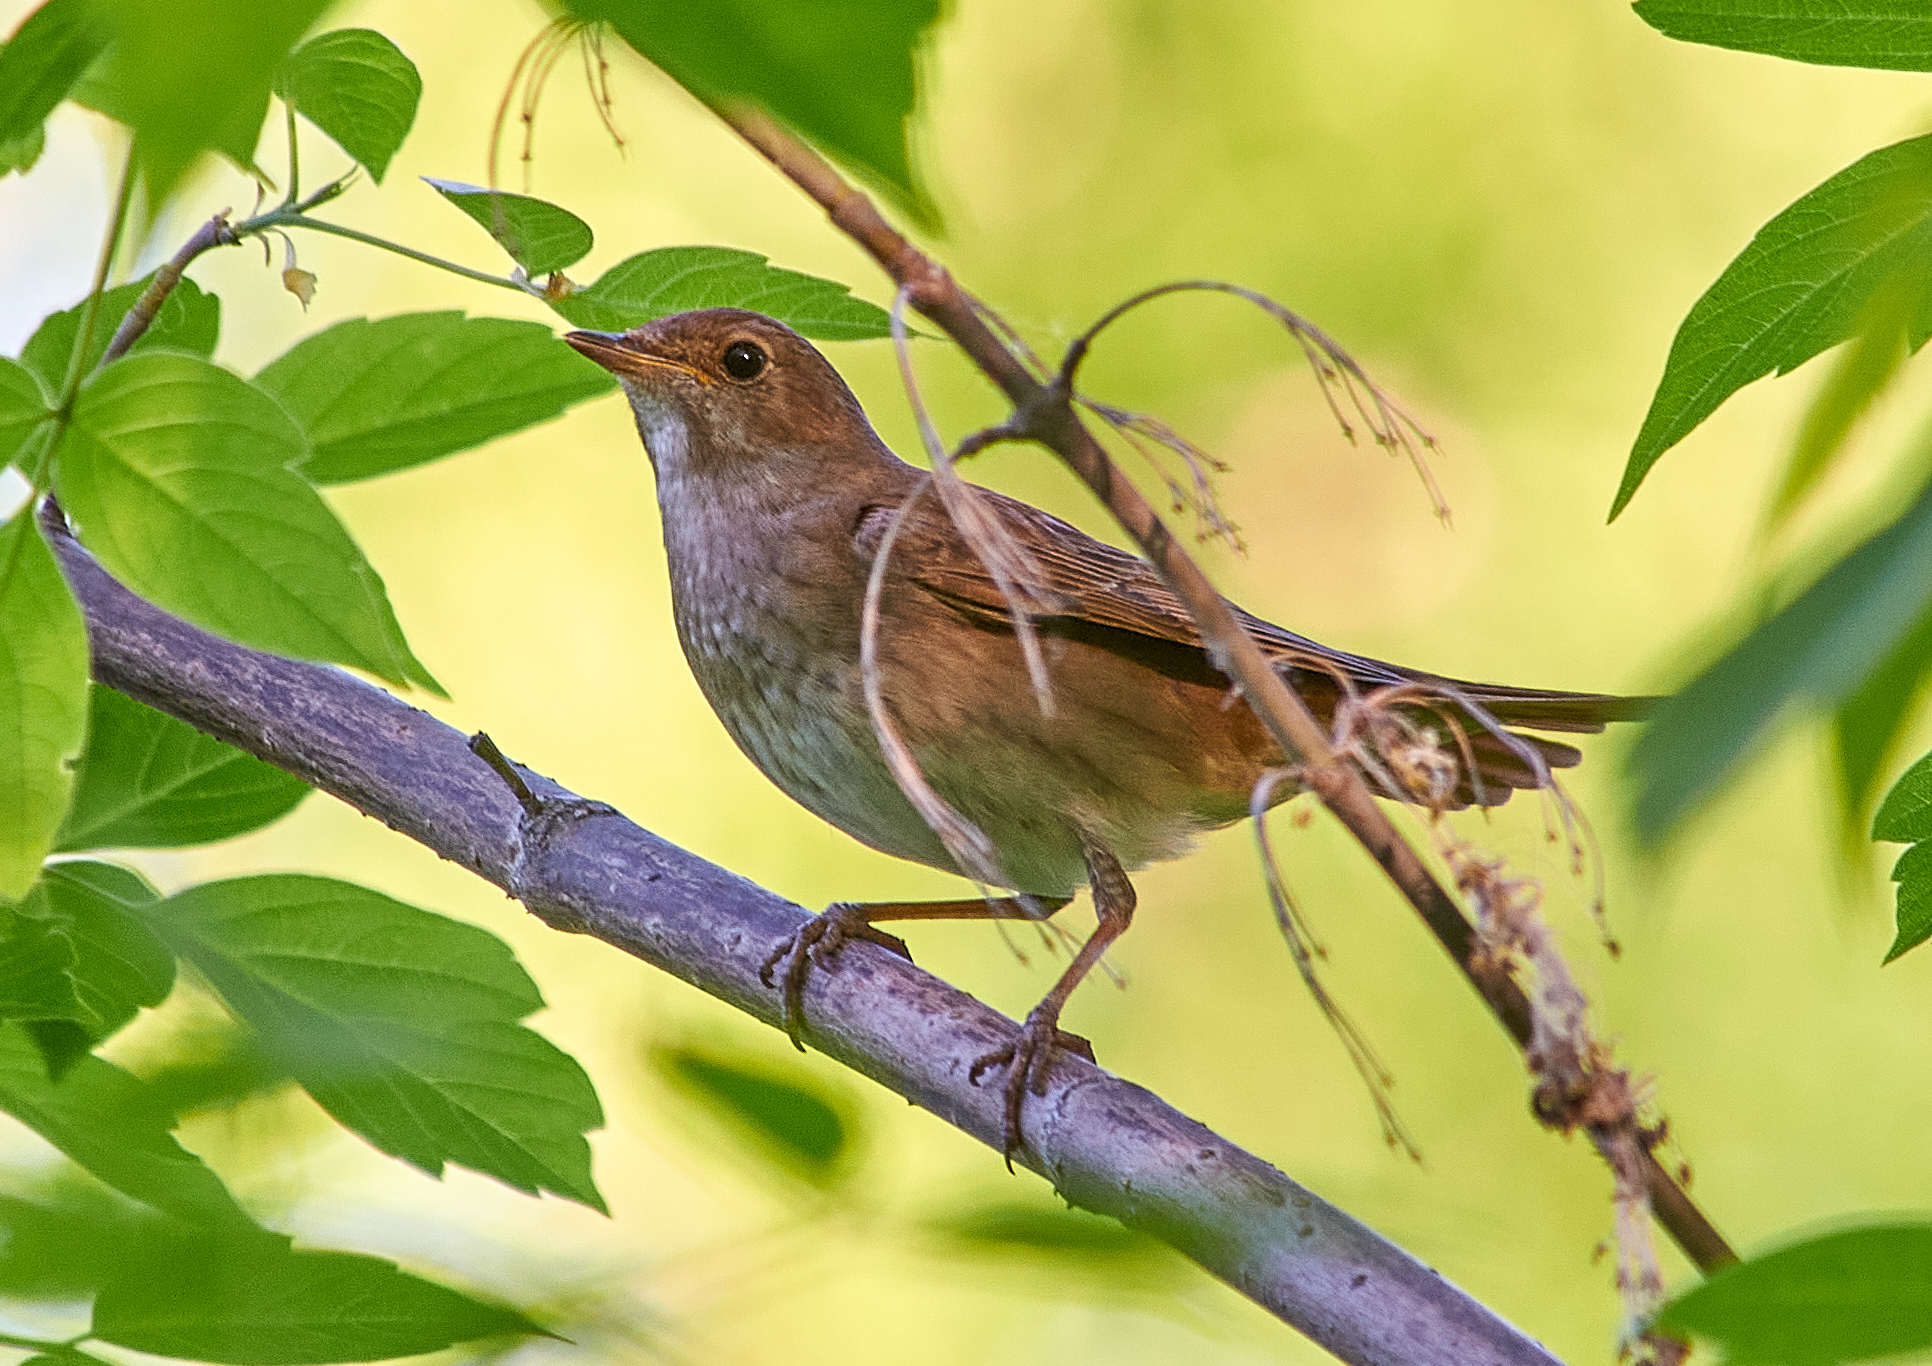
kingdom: Animalia
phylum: Chordata
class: Aves
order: Passeriformes
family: Muscicapidae
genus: Luscinia
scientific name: Luscinia luscinia
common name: Thrush nightingale
